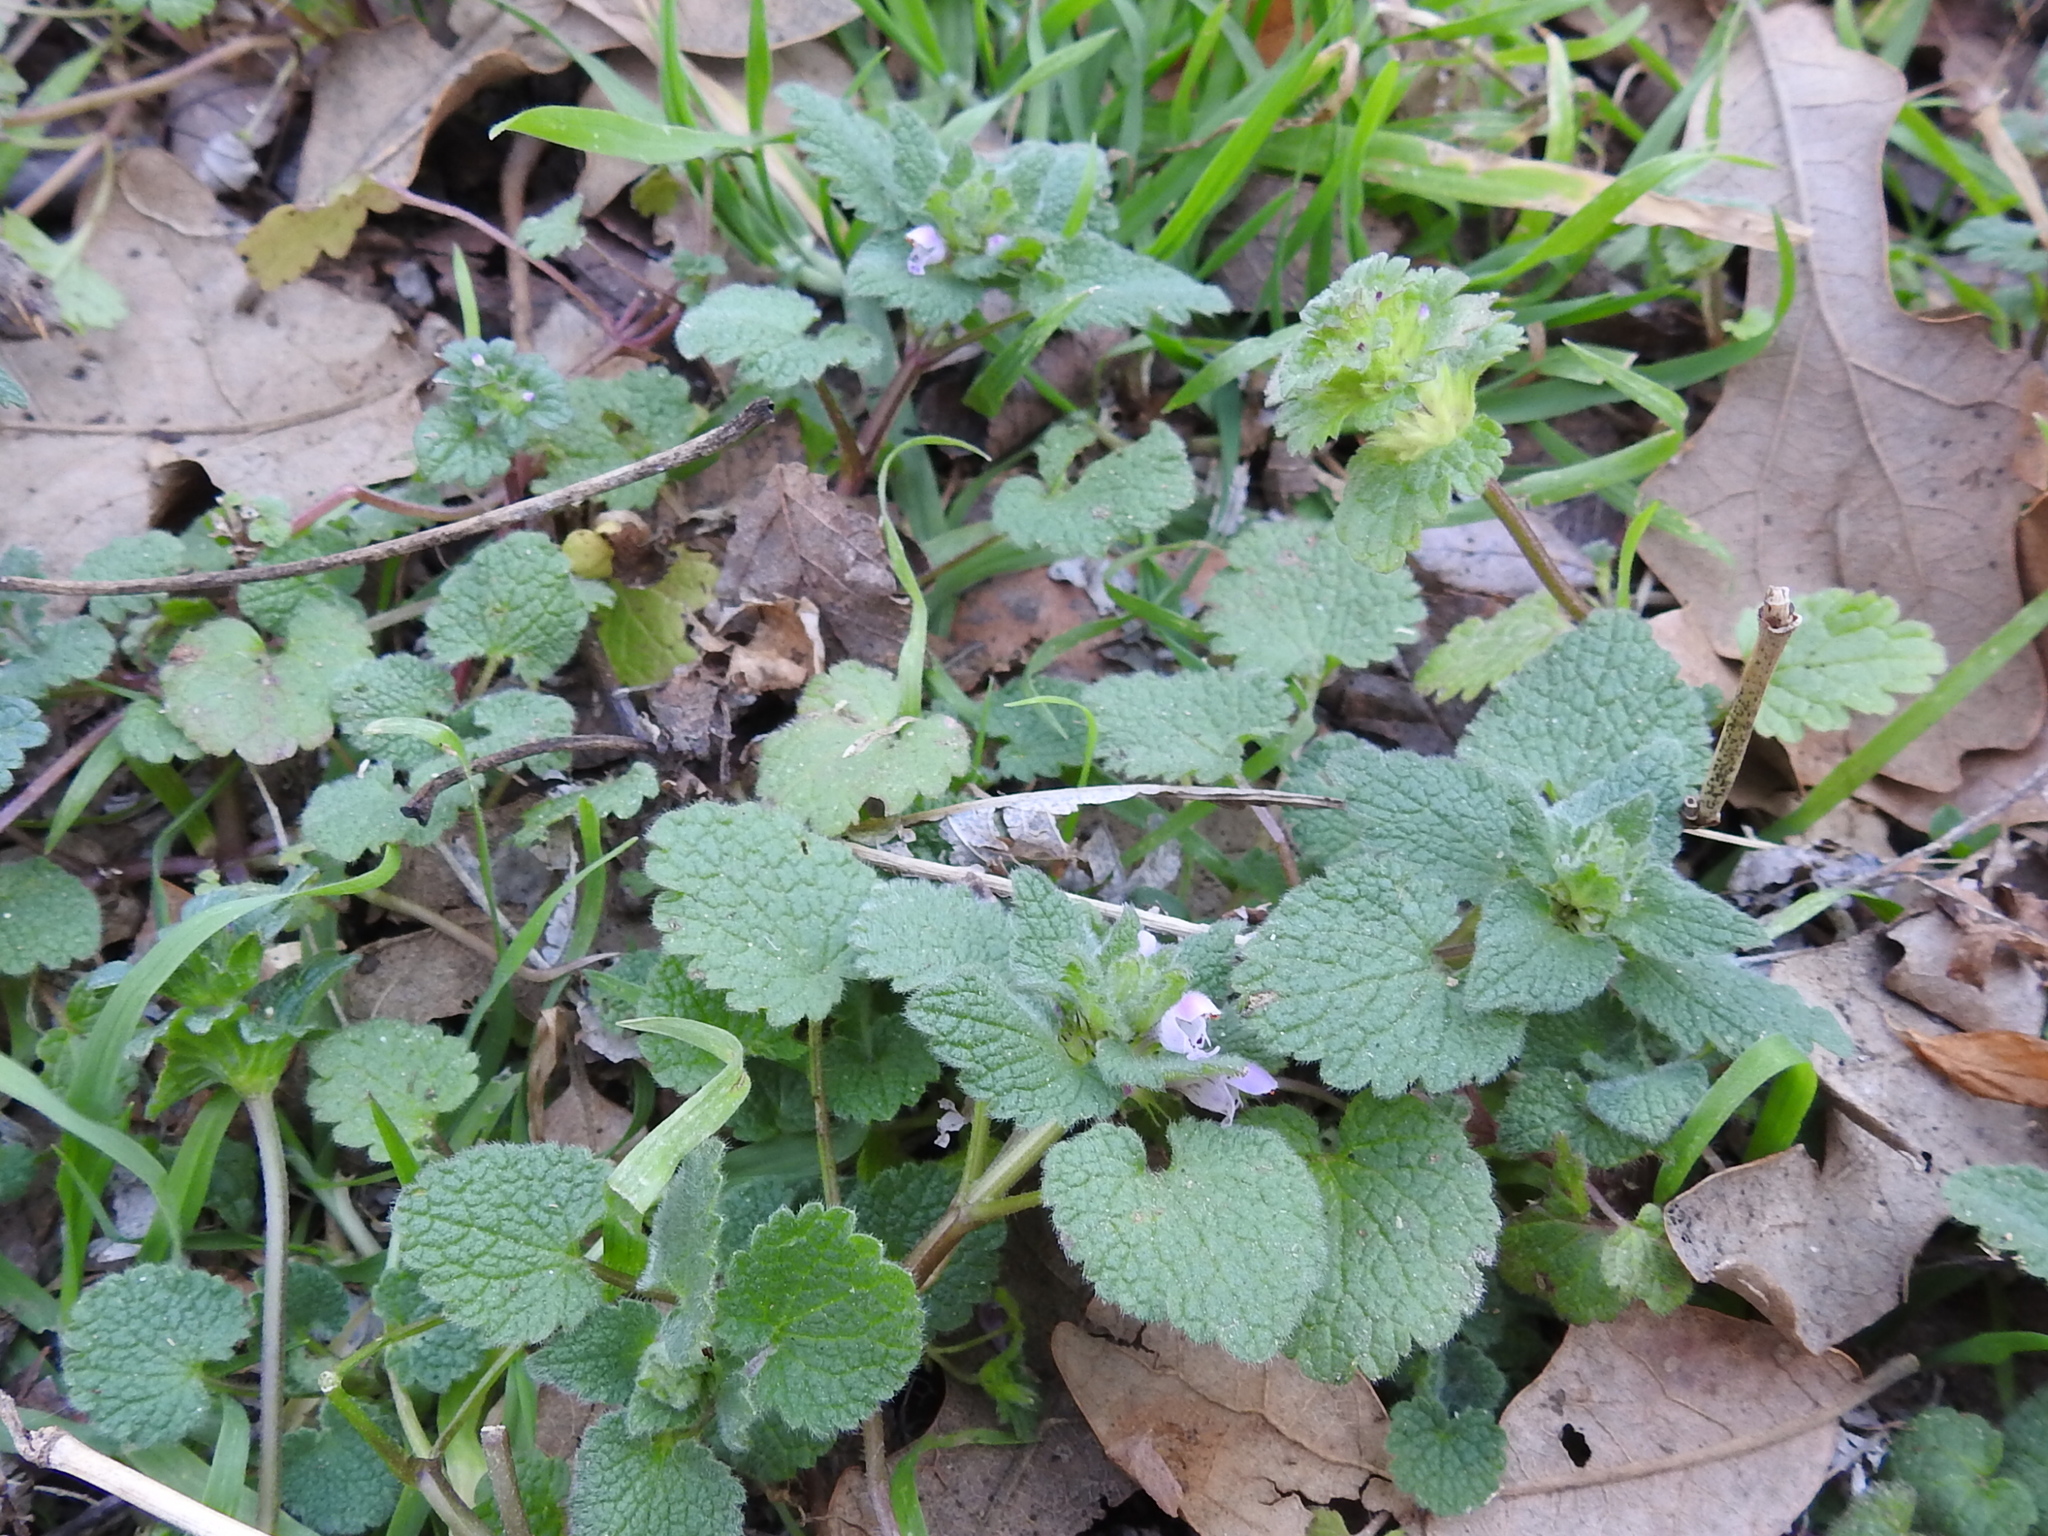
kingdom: Plantae
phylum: Tracheophyta
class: Magnoliopsida
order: Lamiales
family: Lamiaceae
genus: Lamium
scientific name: Lamium purpureum
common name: Red dead-nettle
